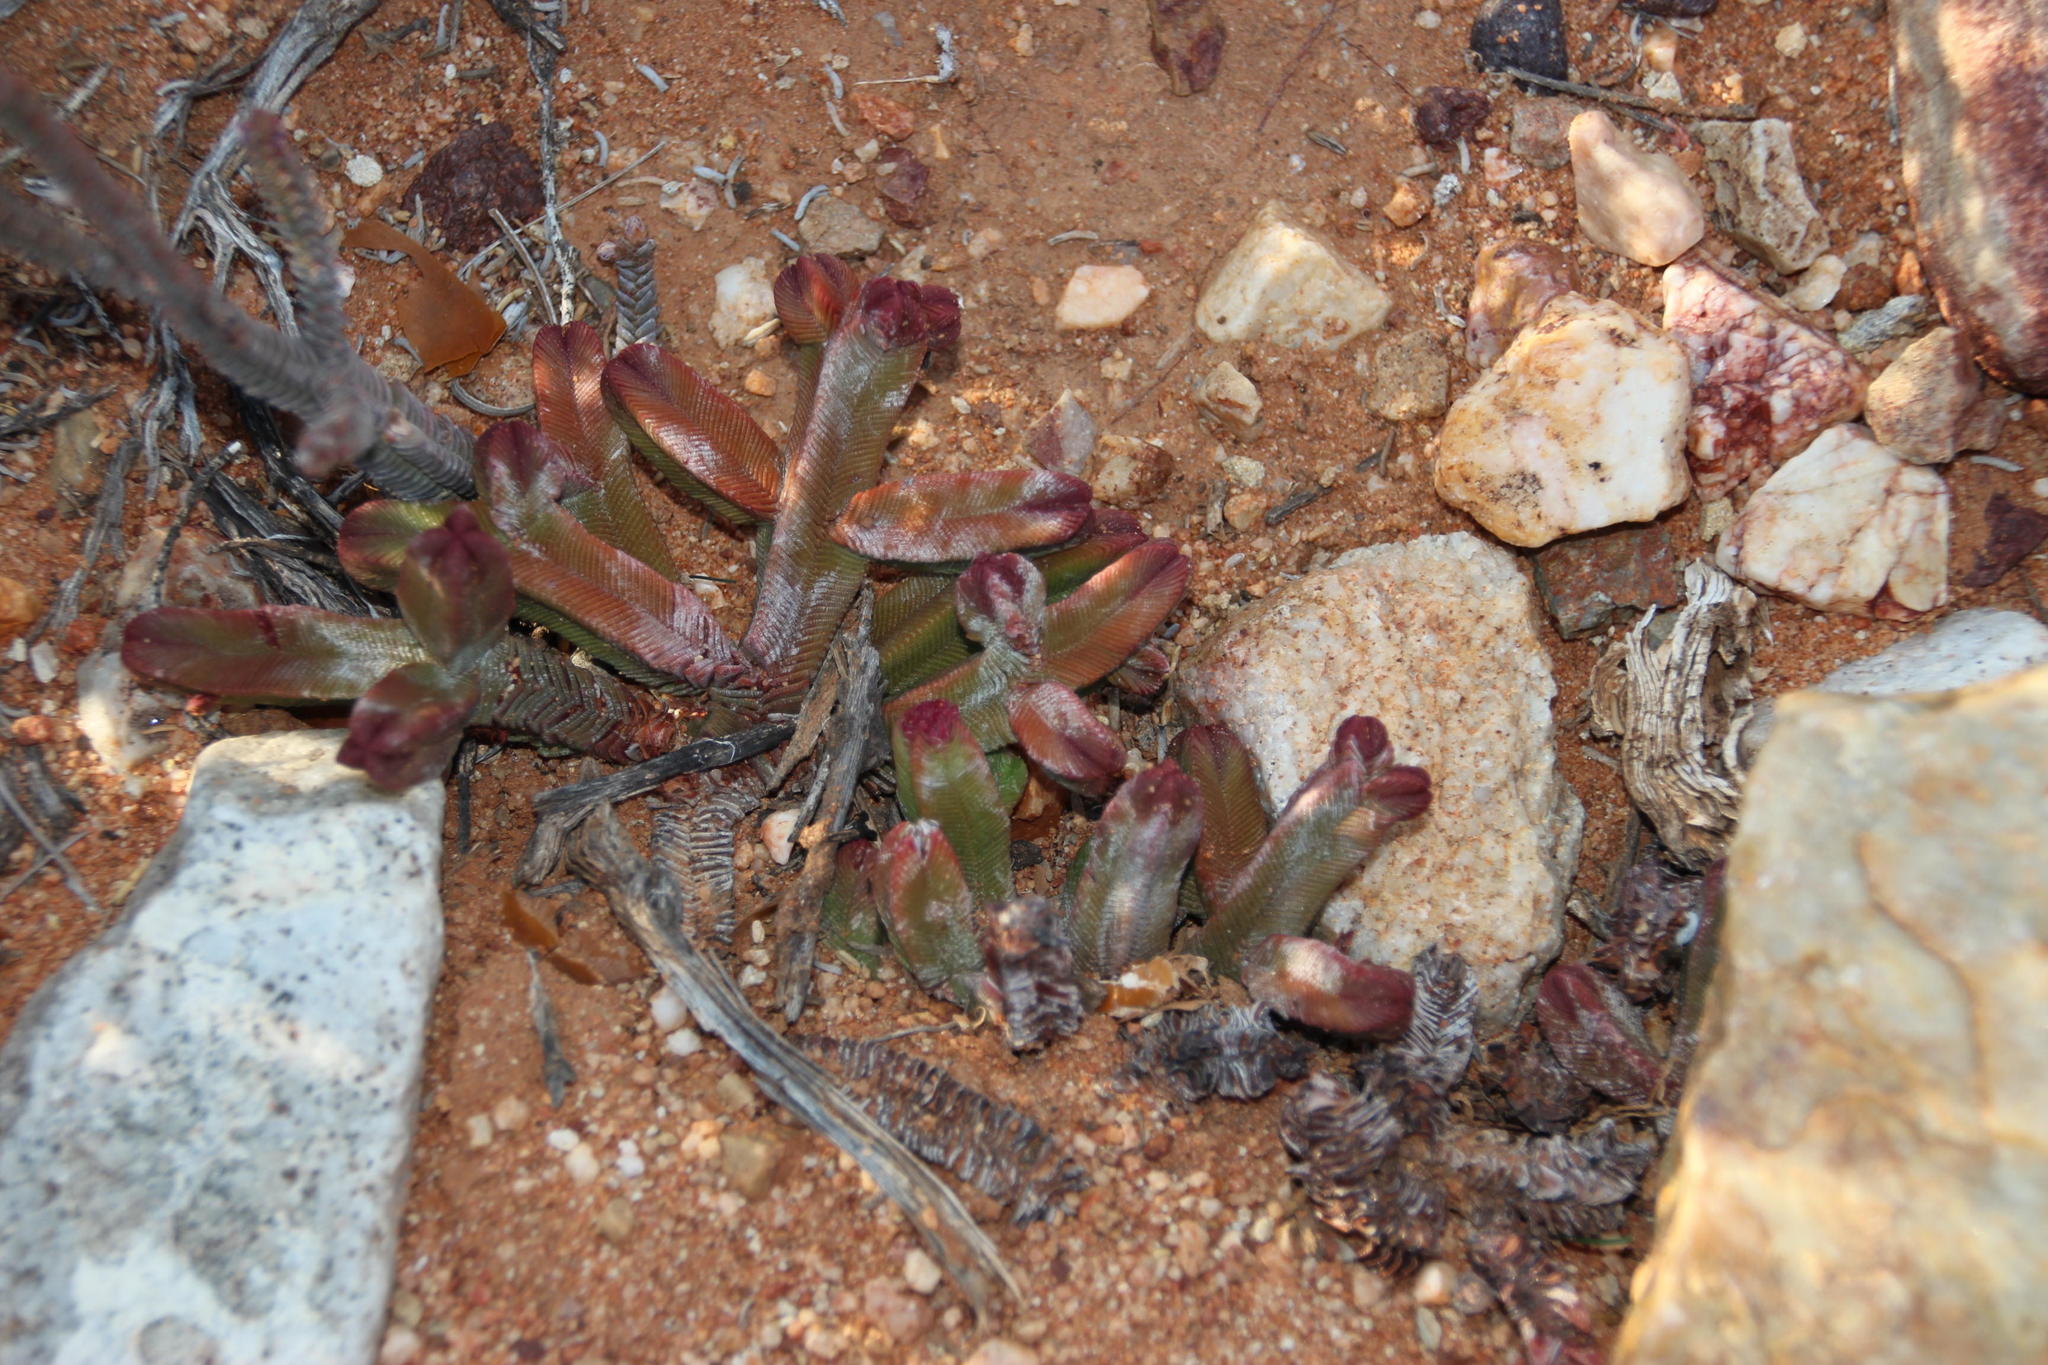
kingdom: Plantae
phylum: Tracheophyta
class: Magnoliopsida
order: Saxifragales
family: Crassulaceae
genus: Crassula
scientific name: Crassula pyramidalis
